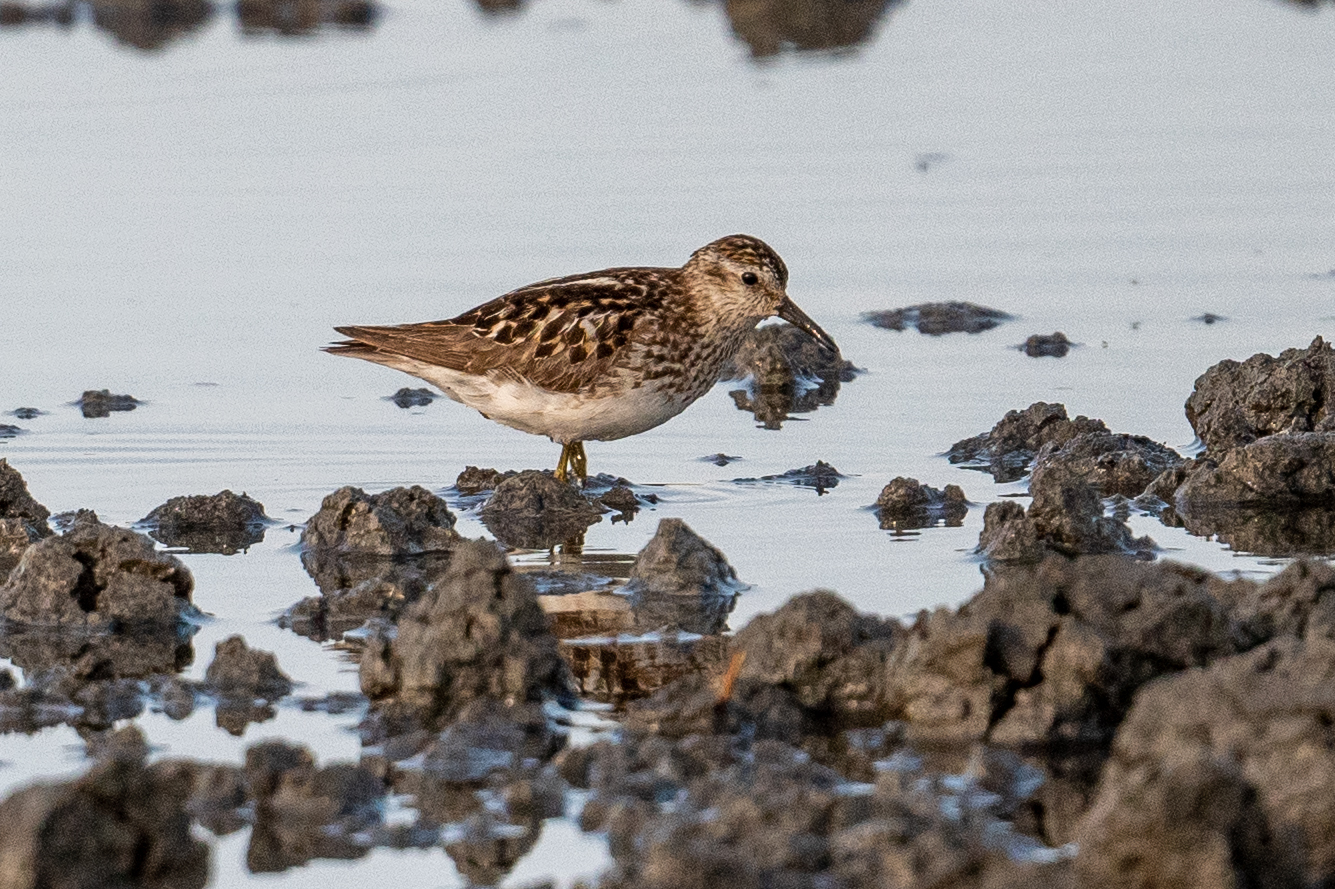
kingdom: Animalia
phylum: Chordata
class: Aves
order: Charadriiformes
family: Scolopacidae
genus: Calidris
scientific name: Calidris minutilla
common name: Least sandpiper
